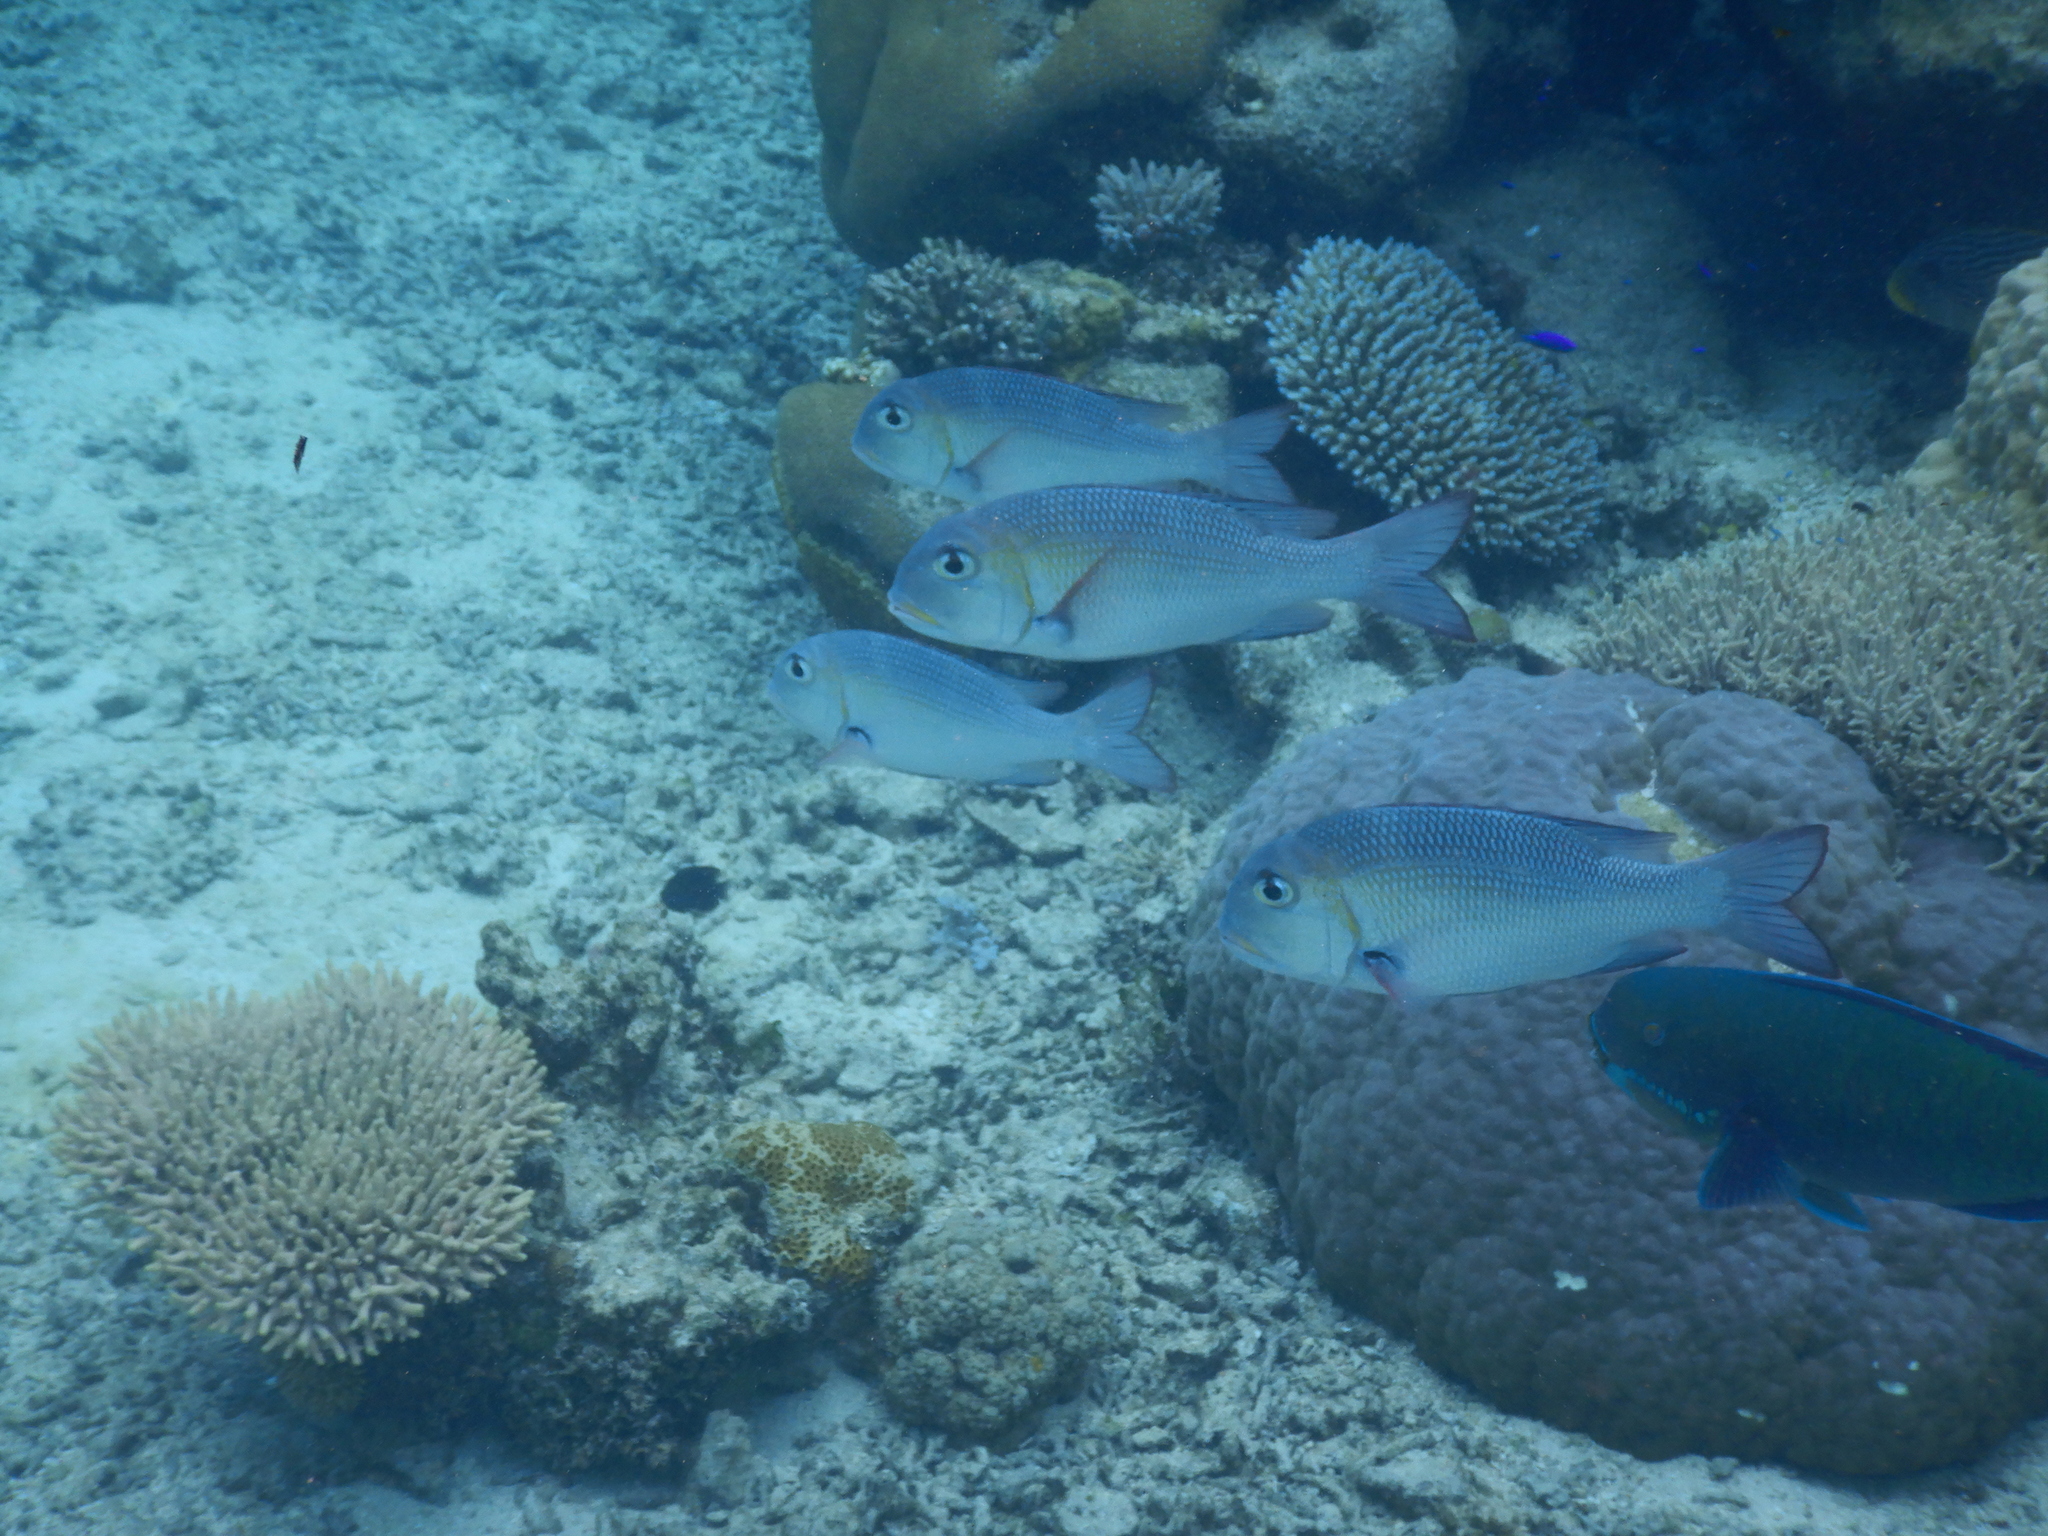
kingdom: Animalia
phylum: Chordata
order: Perciformes
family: Lethrinidae
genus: Monotaxis
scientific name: Monotaxis grandoculis
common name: Bigeye emperor
